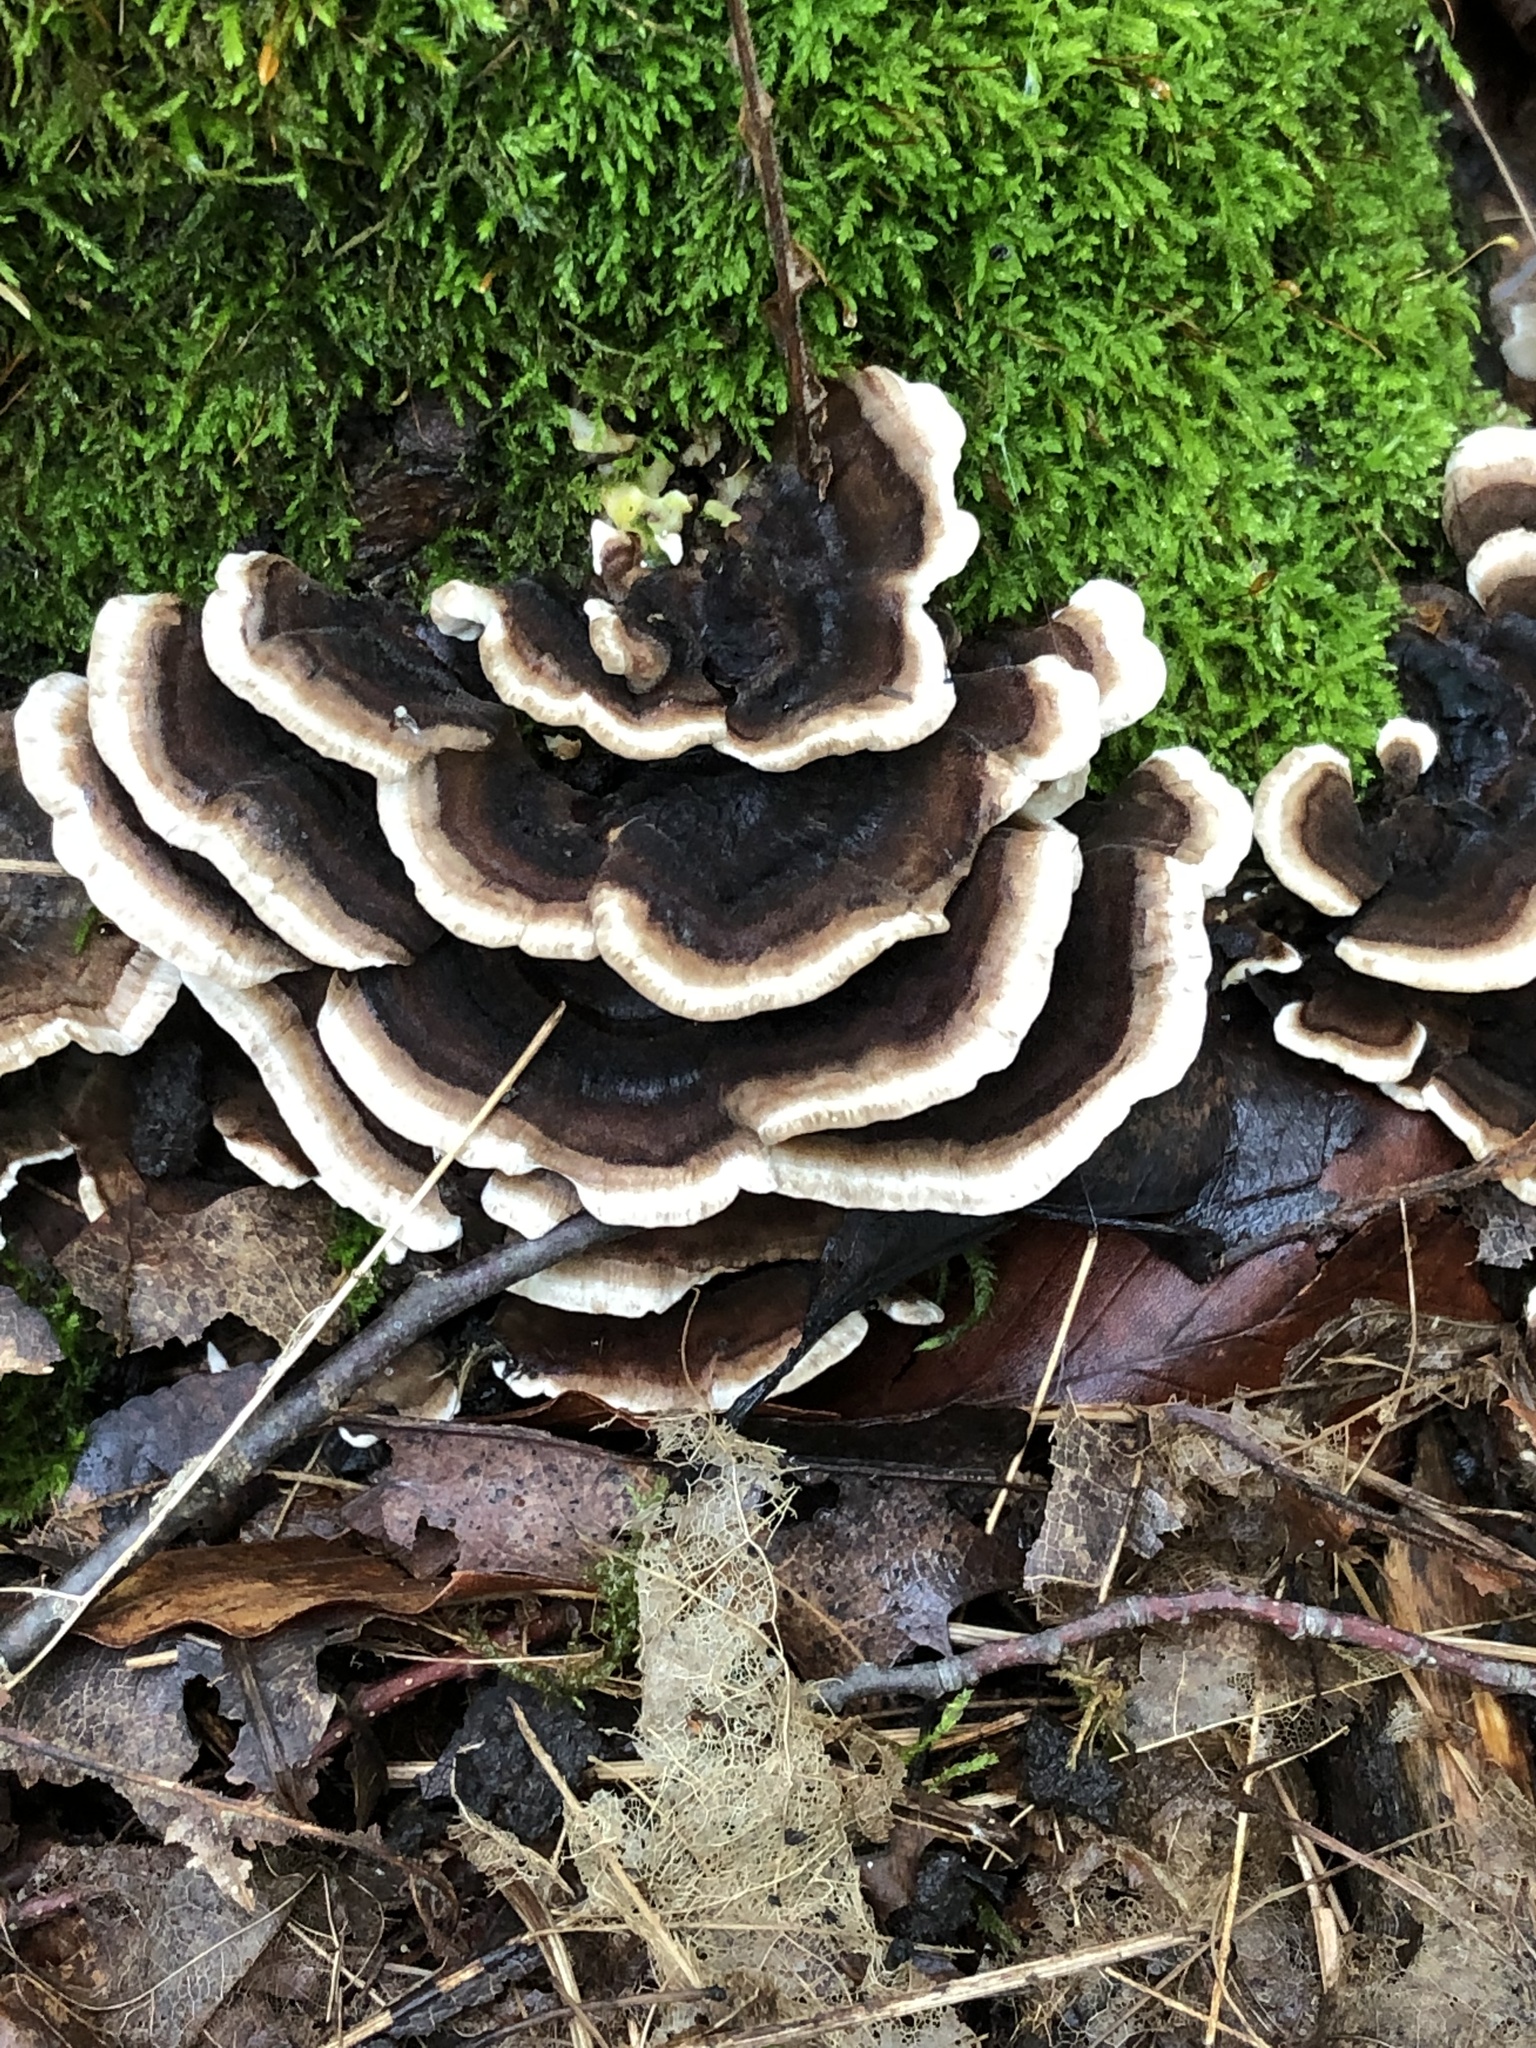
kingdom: Fungi
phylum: Basidiomycota
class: Agaricomycetes
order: Polyporales
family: Polyporaceae
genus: Trametes
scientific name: Trametes versicolor
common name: Turkeytail
